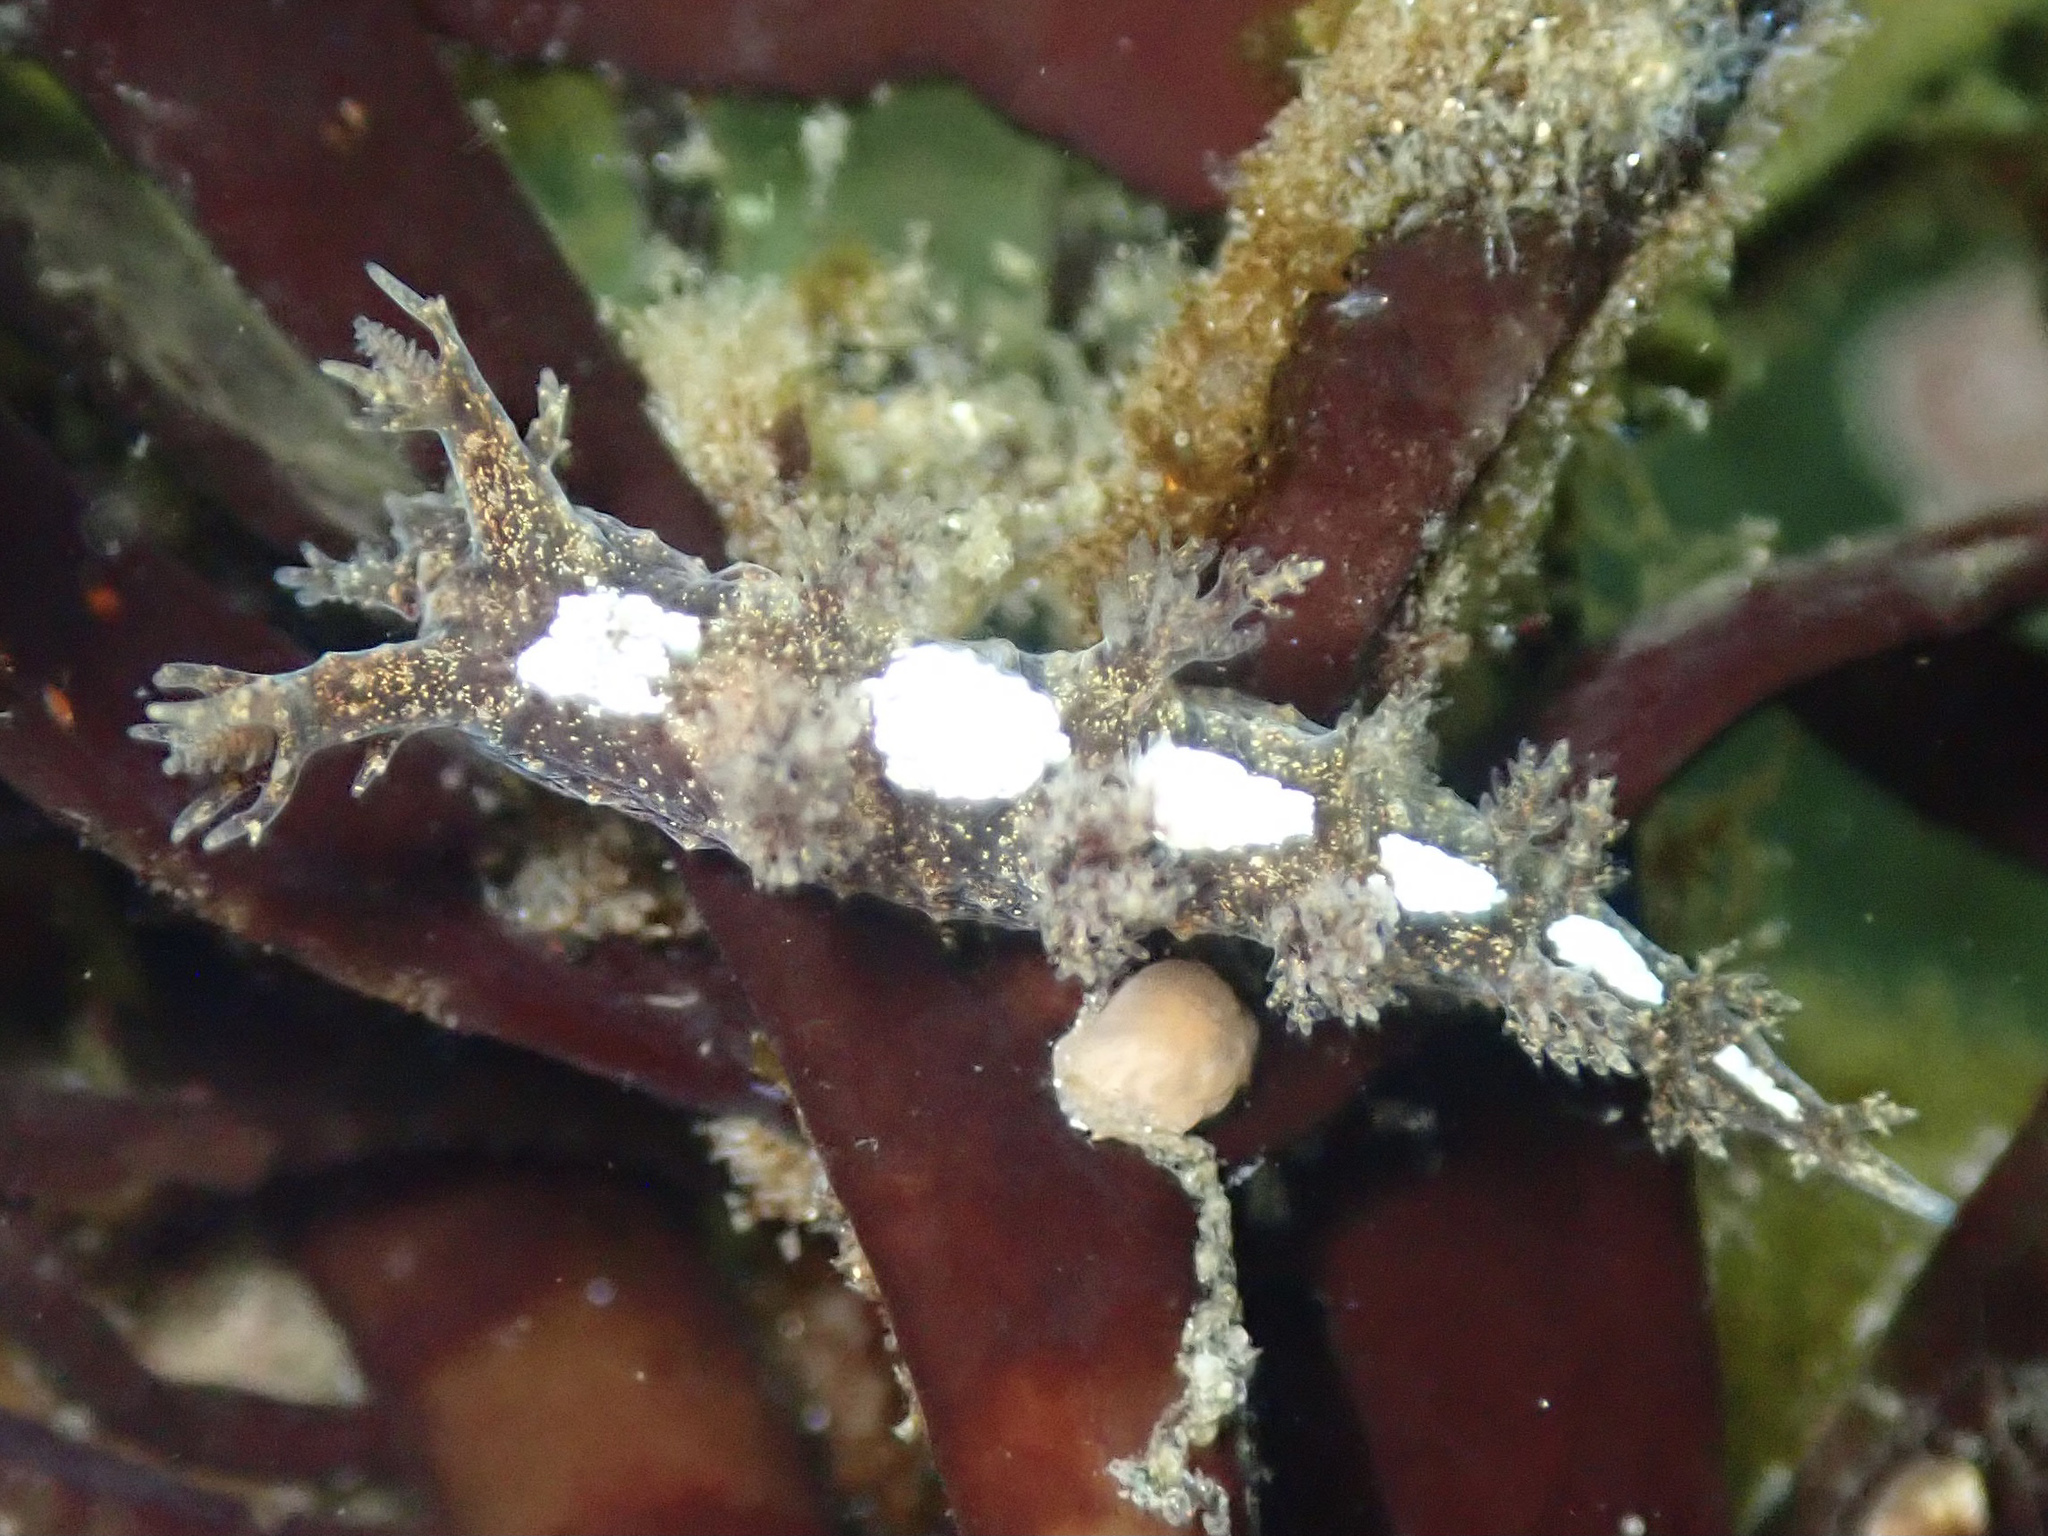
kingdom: Animalia
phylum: Mollusca
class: Gastropoda
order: Nudibranchia
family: Dendronotidae
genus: Dendronotus
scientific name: Dendronotus venustus
